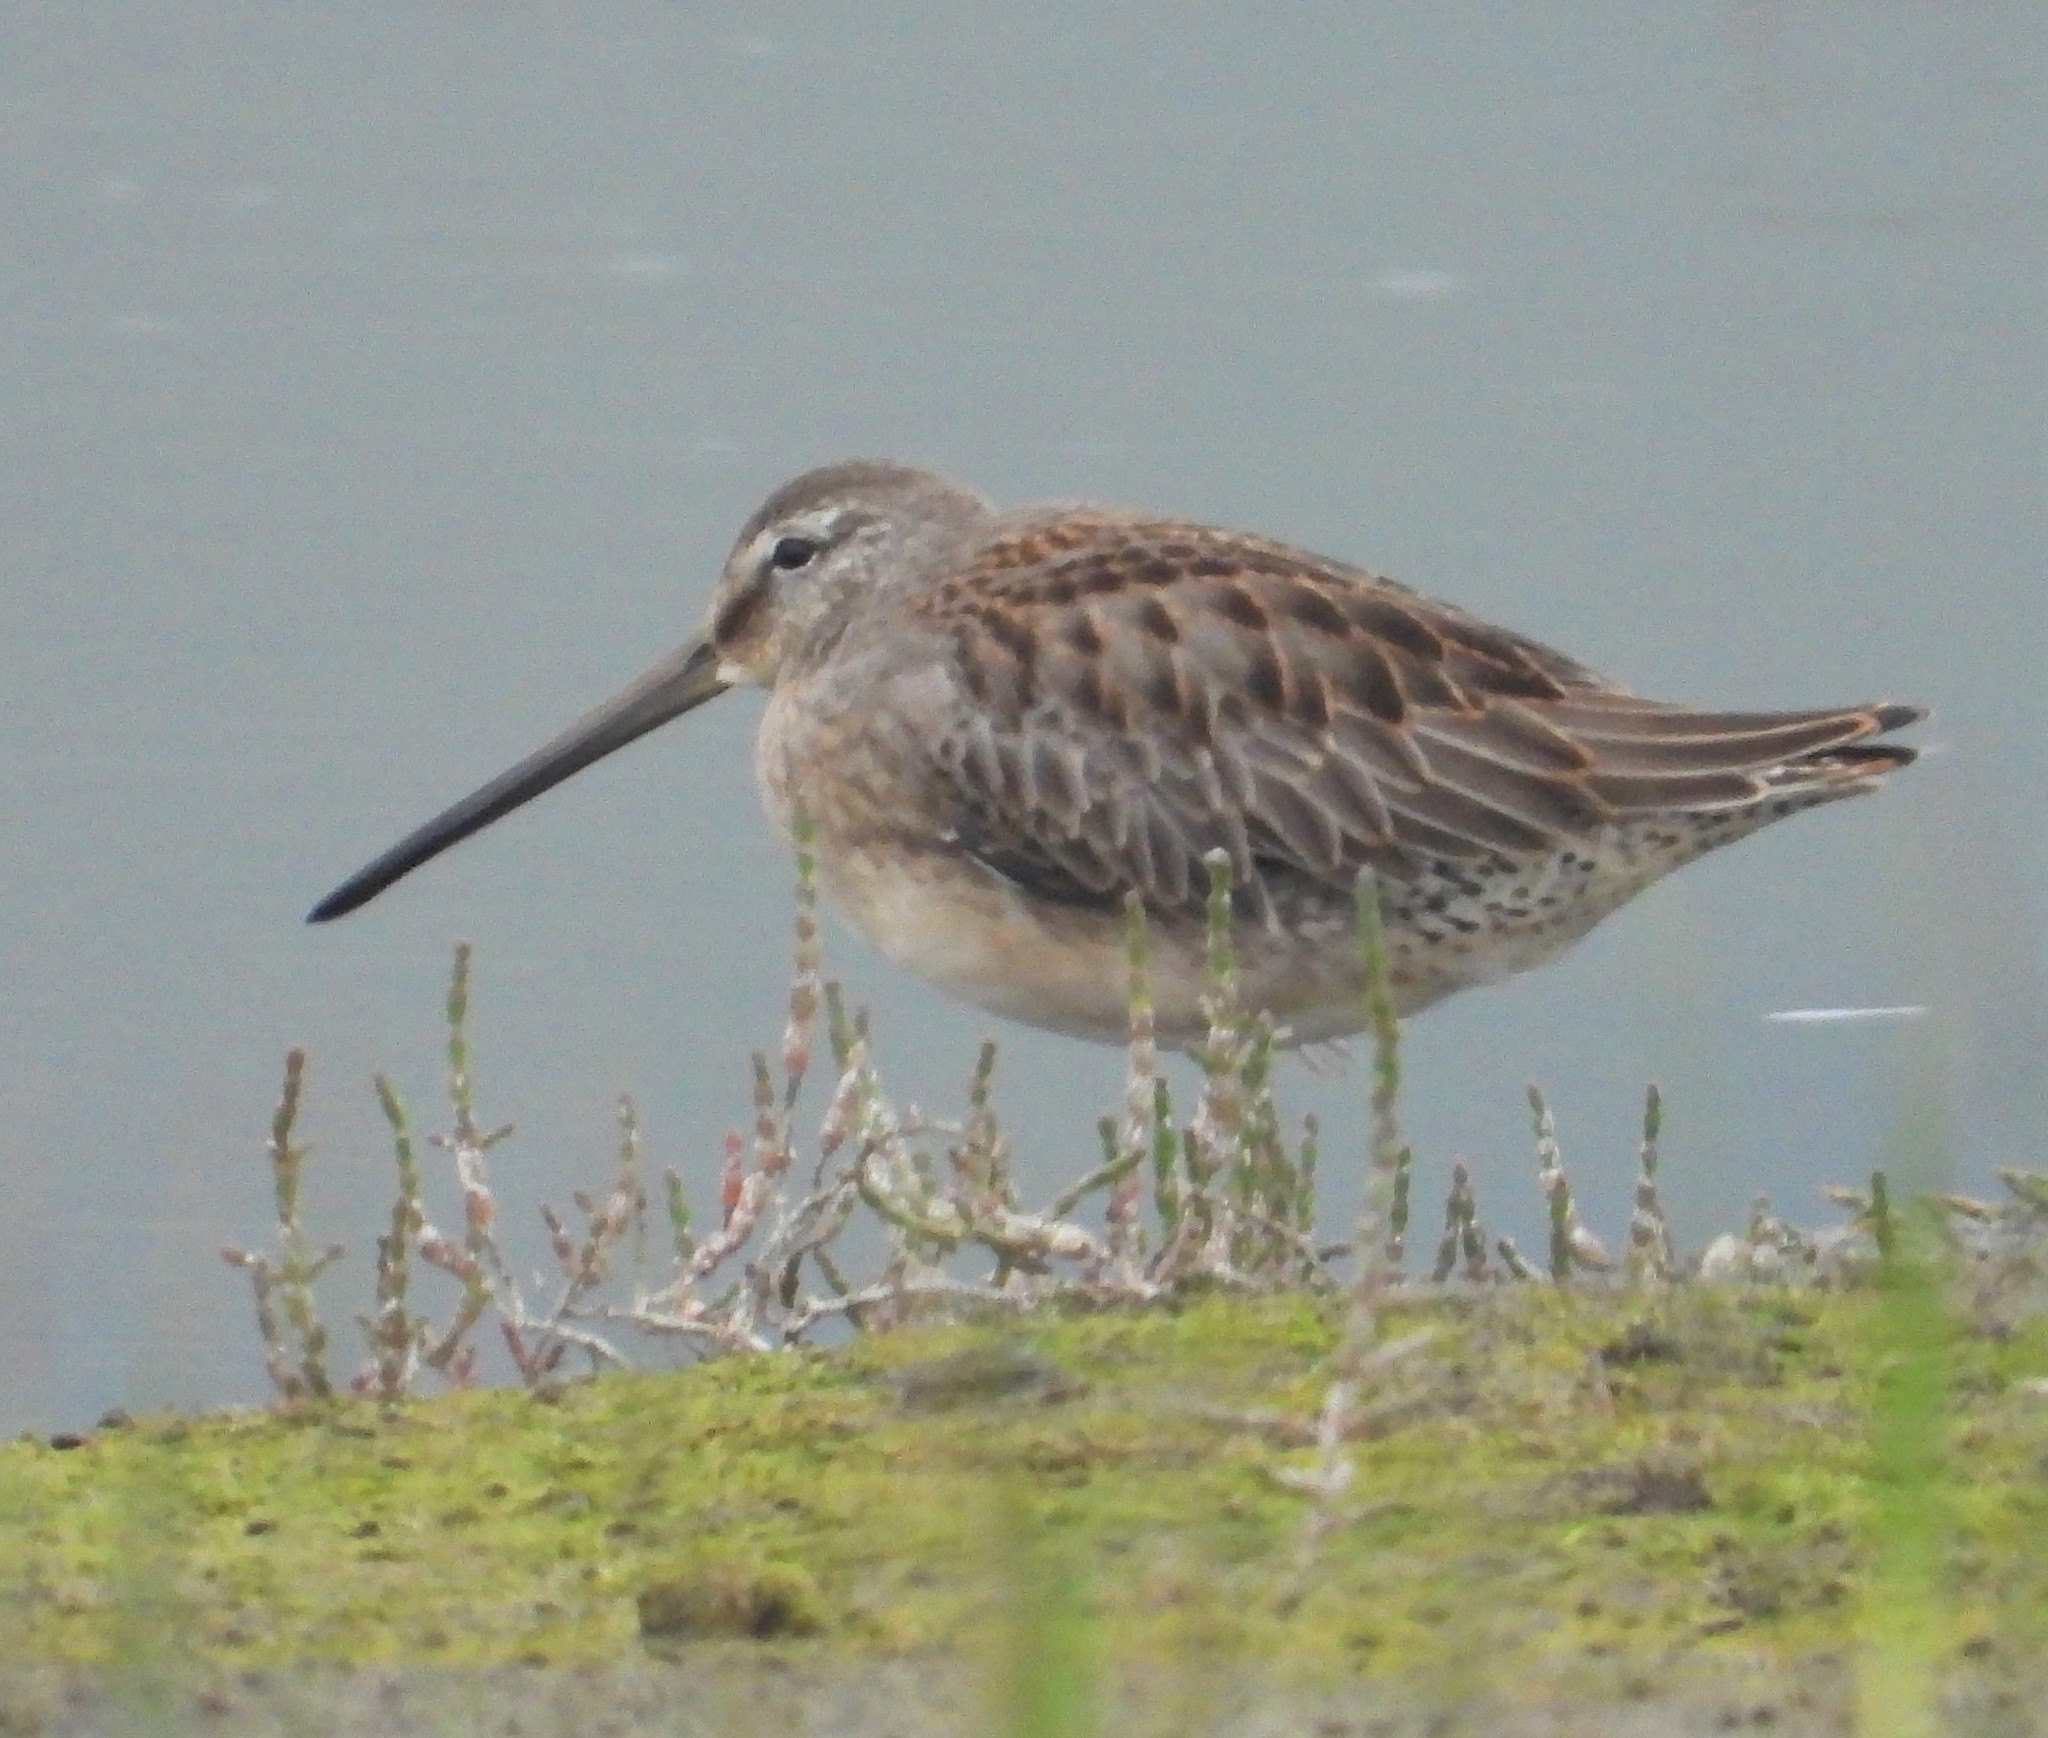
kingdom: Animalia
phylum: Chordata
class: Aves
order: Charadriiformes
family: Scolopacidae
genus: Limnodromus
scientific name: Limnodromus scolopaceus
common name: Long-billed dowitcher
